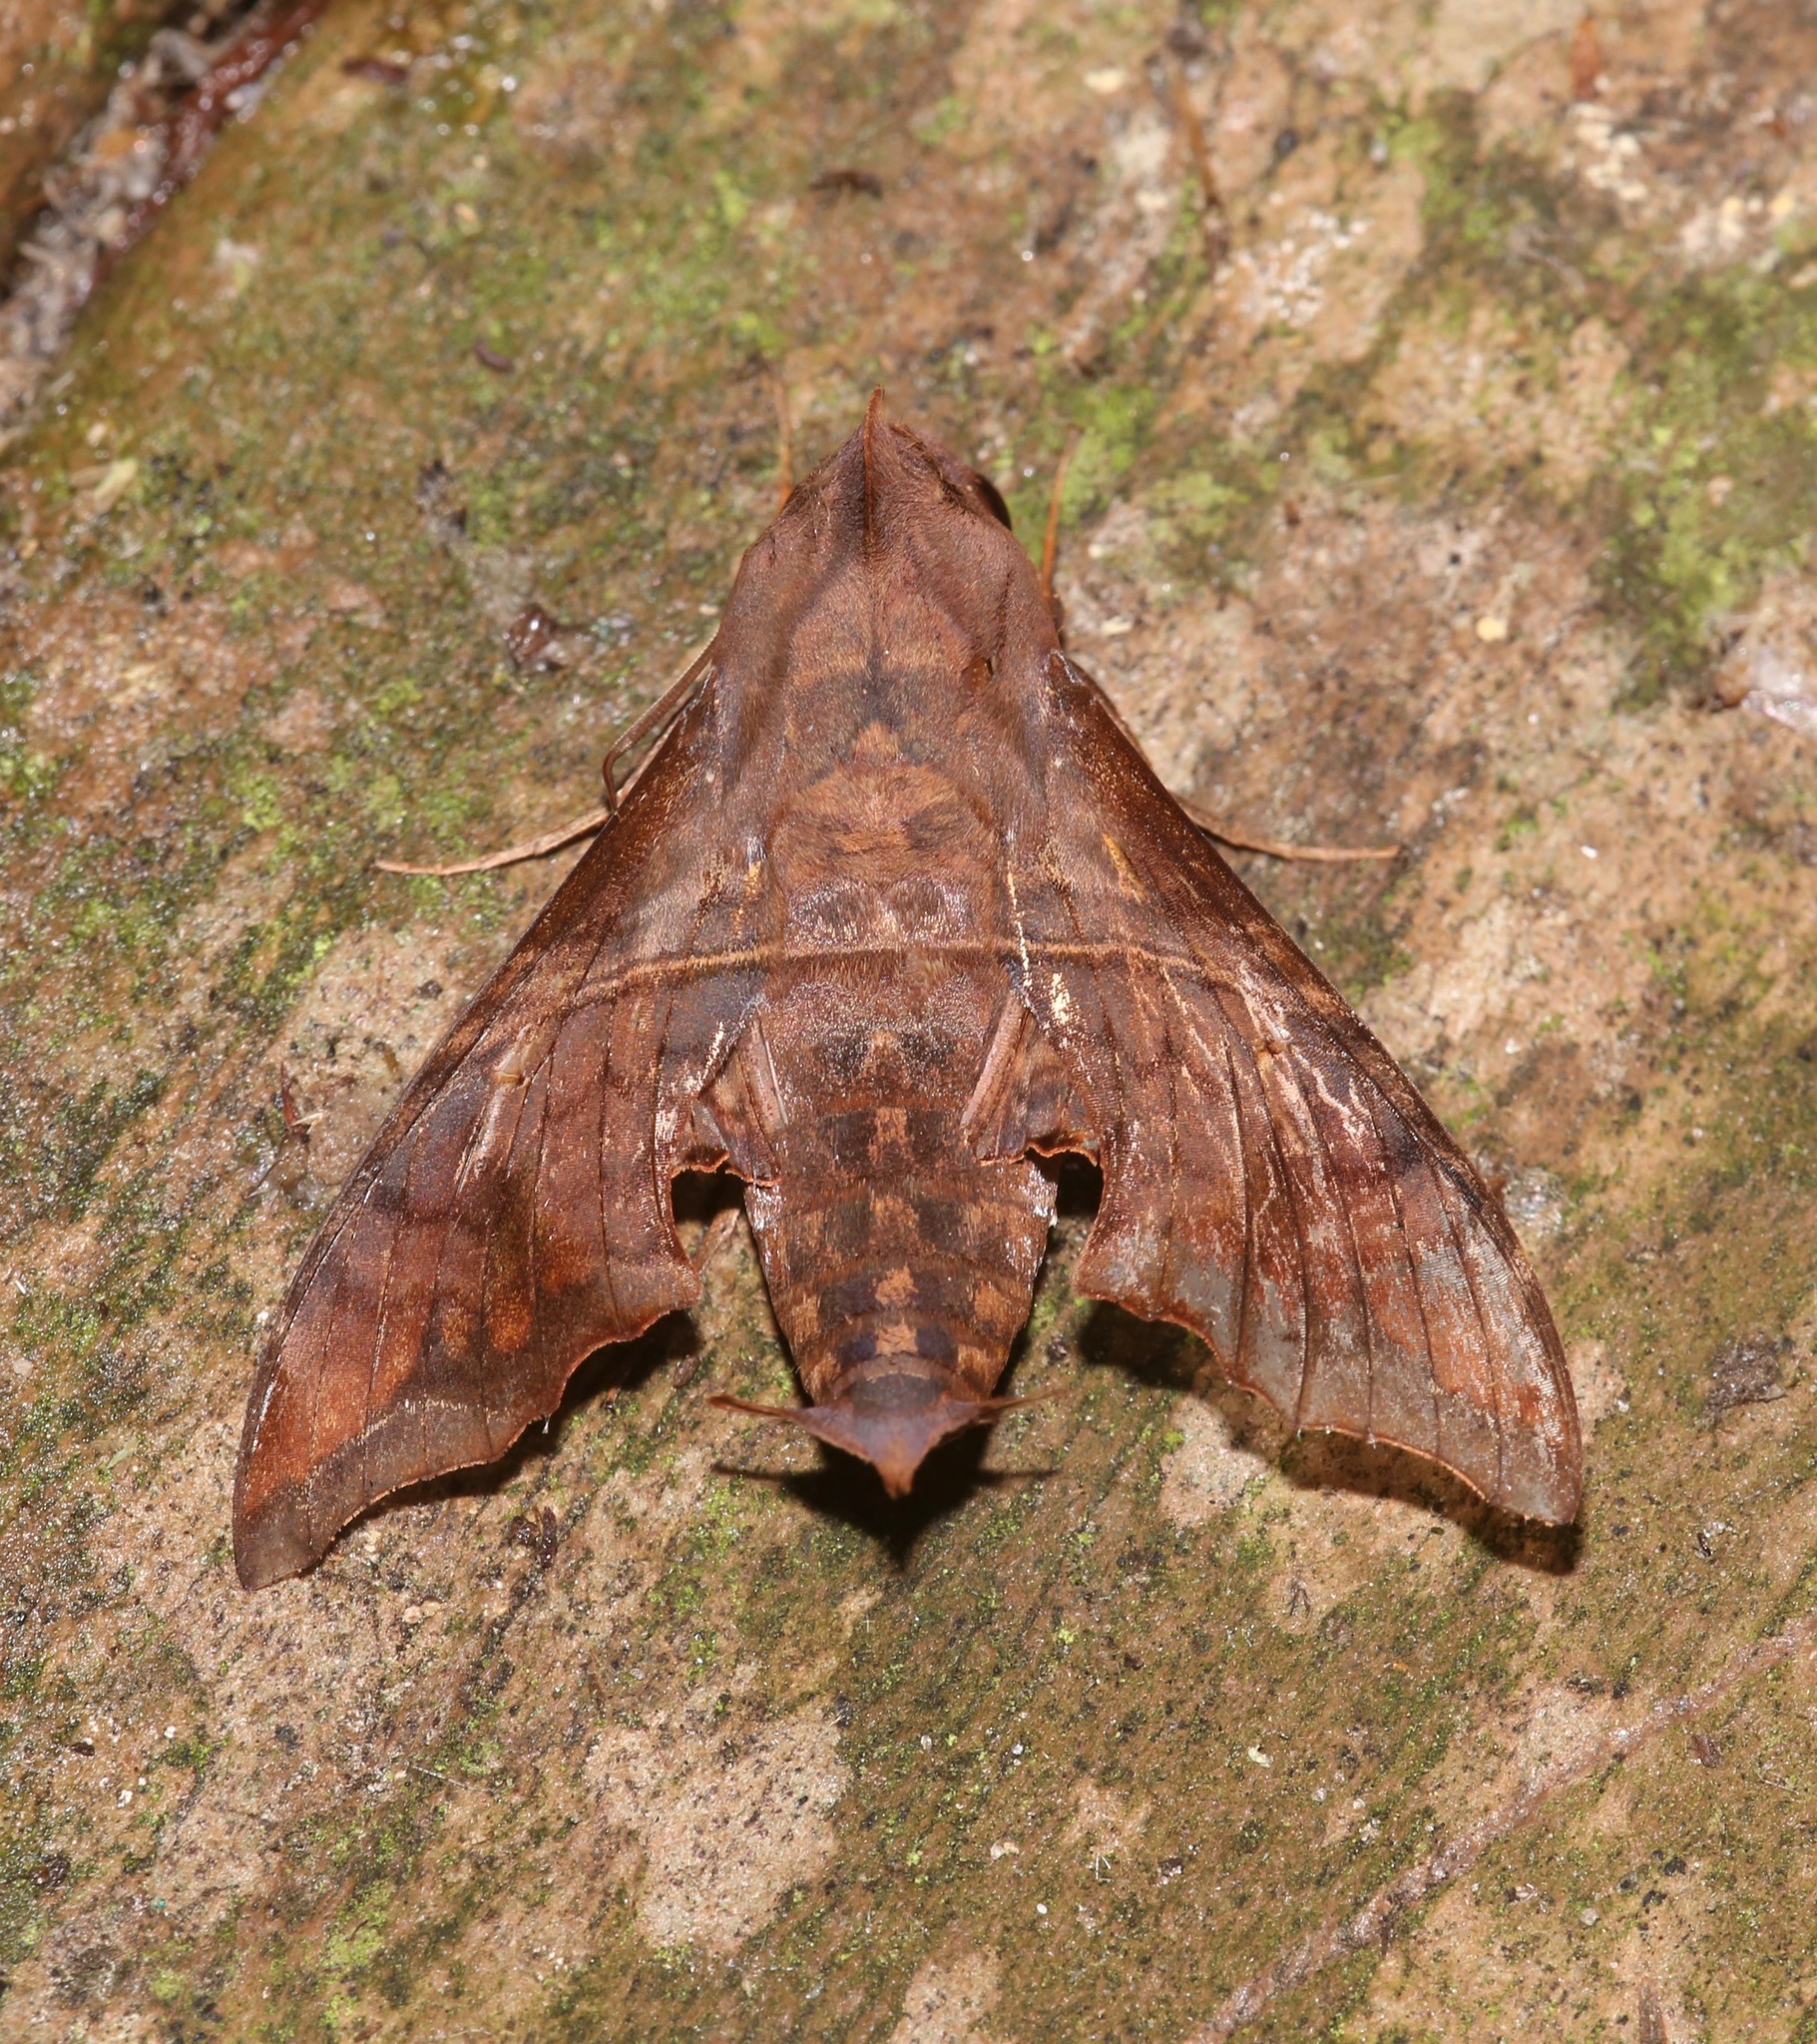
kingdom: Animalia
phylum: Arthropoda
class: Insecta
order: Lepidoptera
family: Sphingidae
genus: Enyo
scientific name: Enyo lugubris
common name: Mournful sphinx
